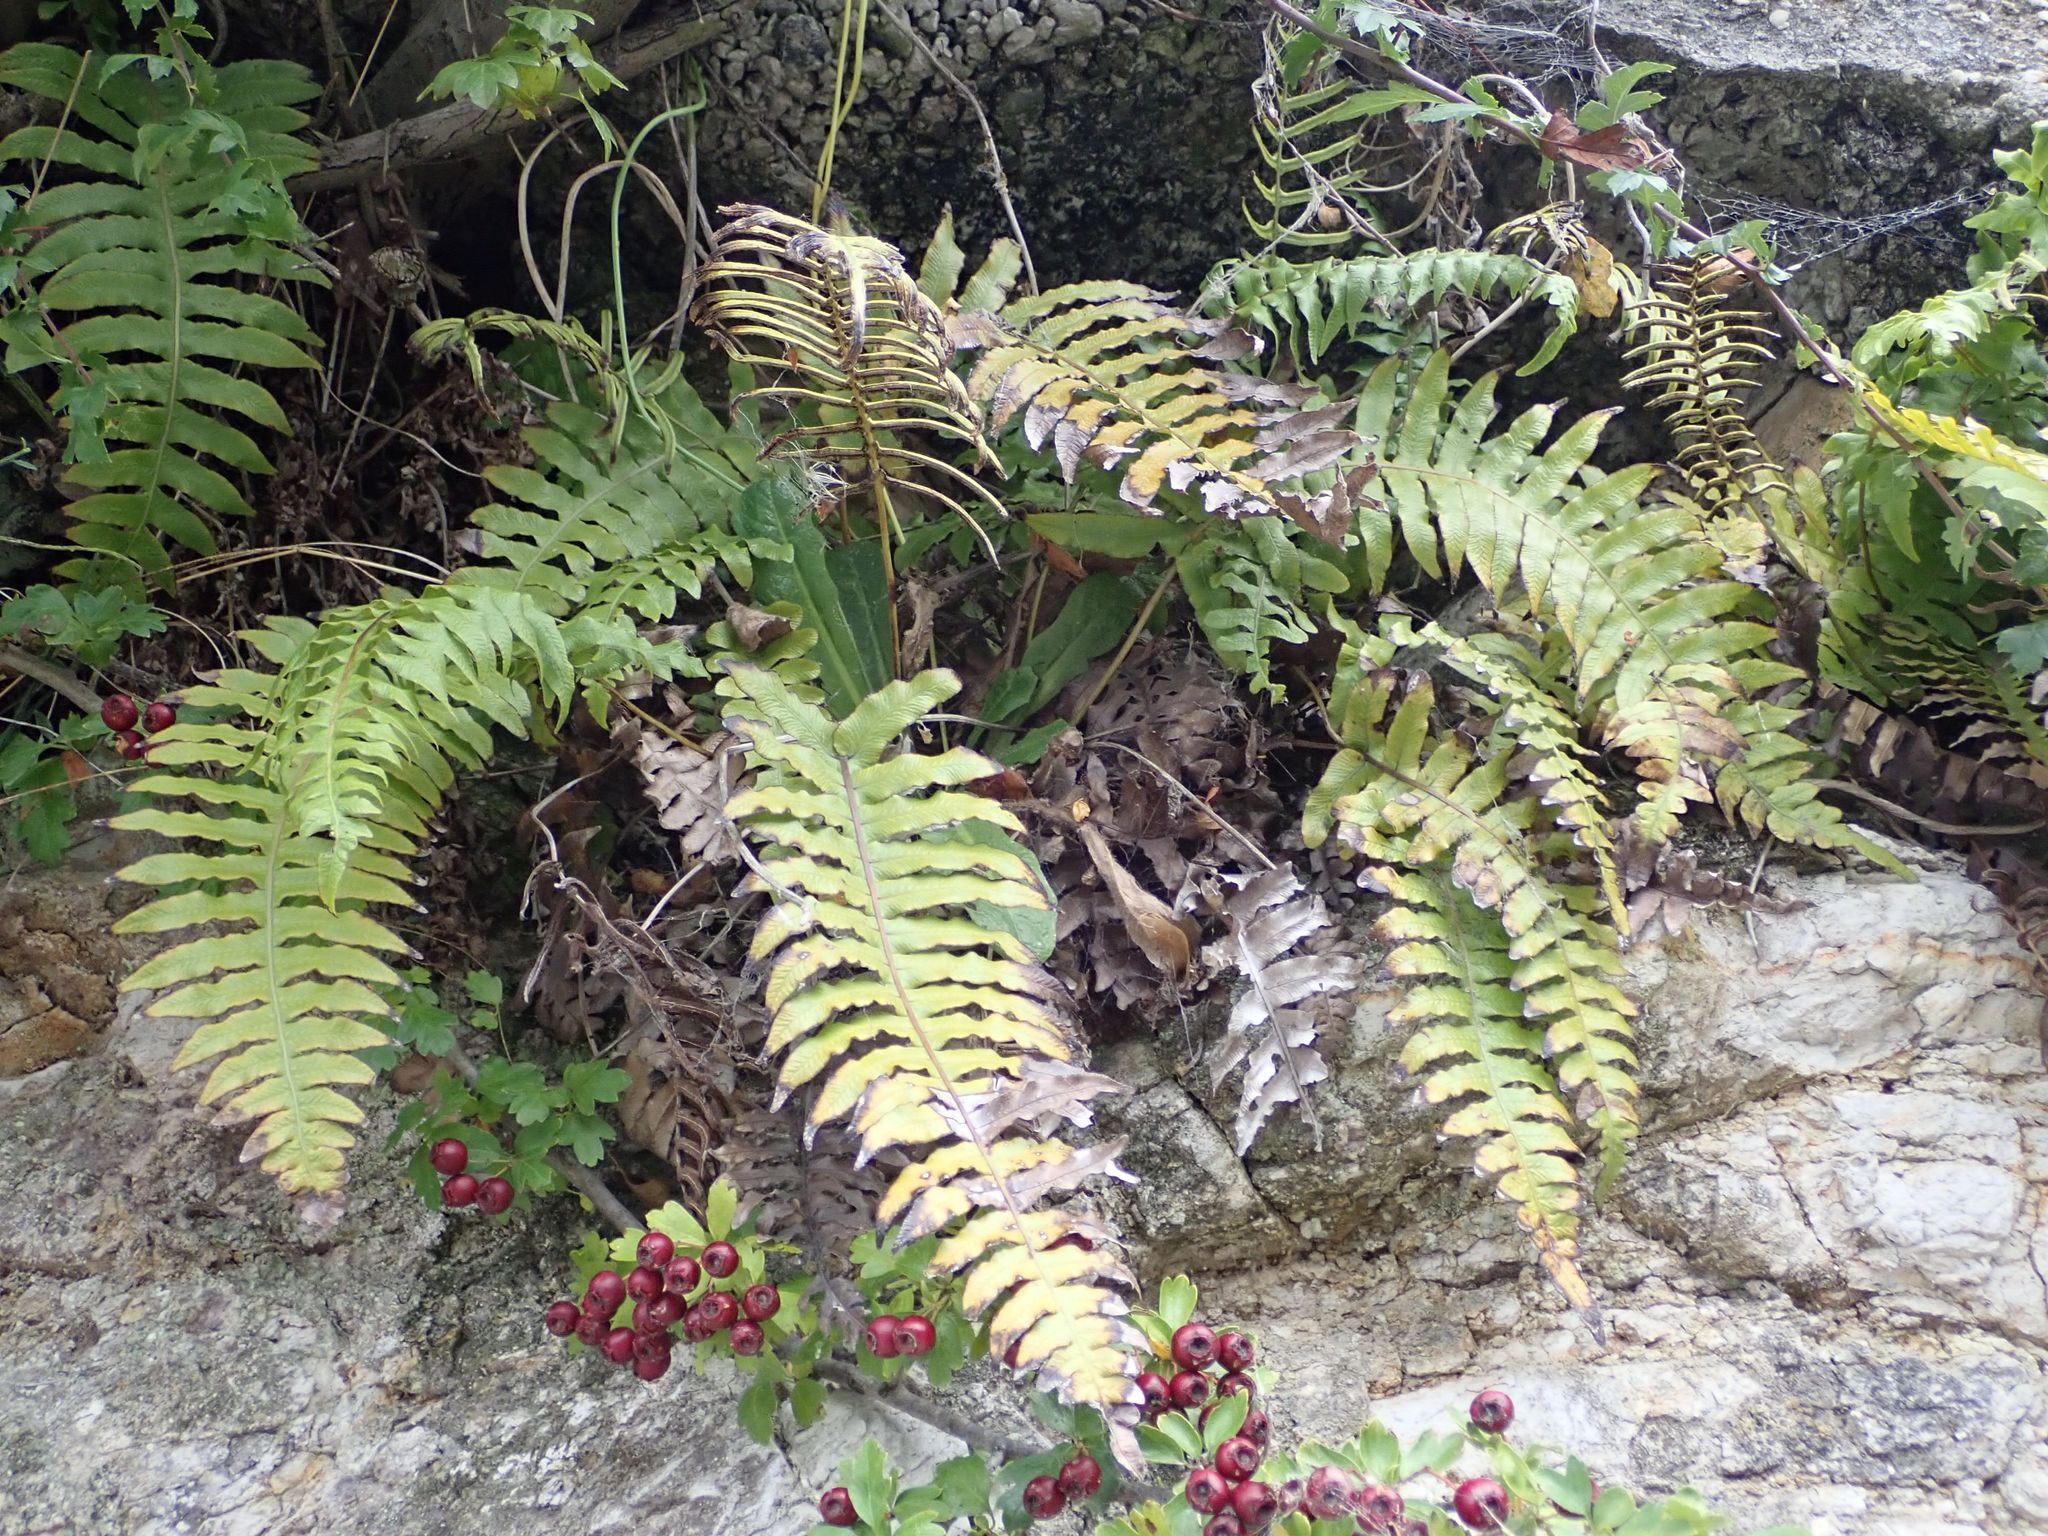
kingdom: Plantae
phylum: Tracheophyta
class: Polypodiopsida
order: Polypodiales
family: Blechnaceae
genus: Cranfillia
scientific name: Cranfillia deltoides
